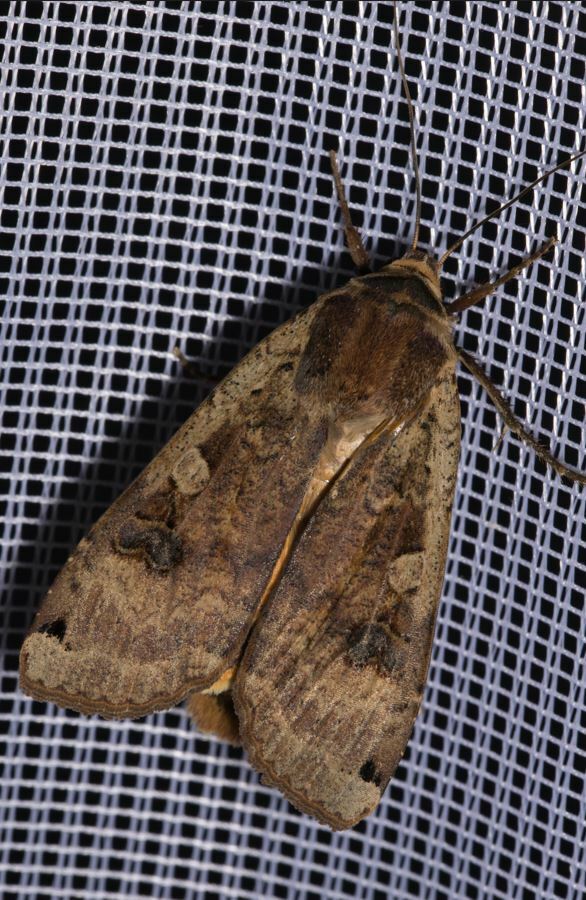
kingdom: Animalia
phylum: Arthropoda
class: Insecta
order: Lepidoptera
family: Noctuidae
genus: Noctua
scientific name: Noctua pronuba
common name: Large yellow underwing
